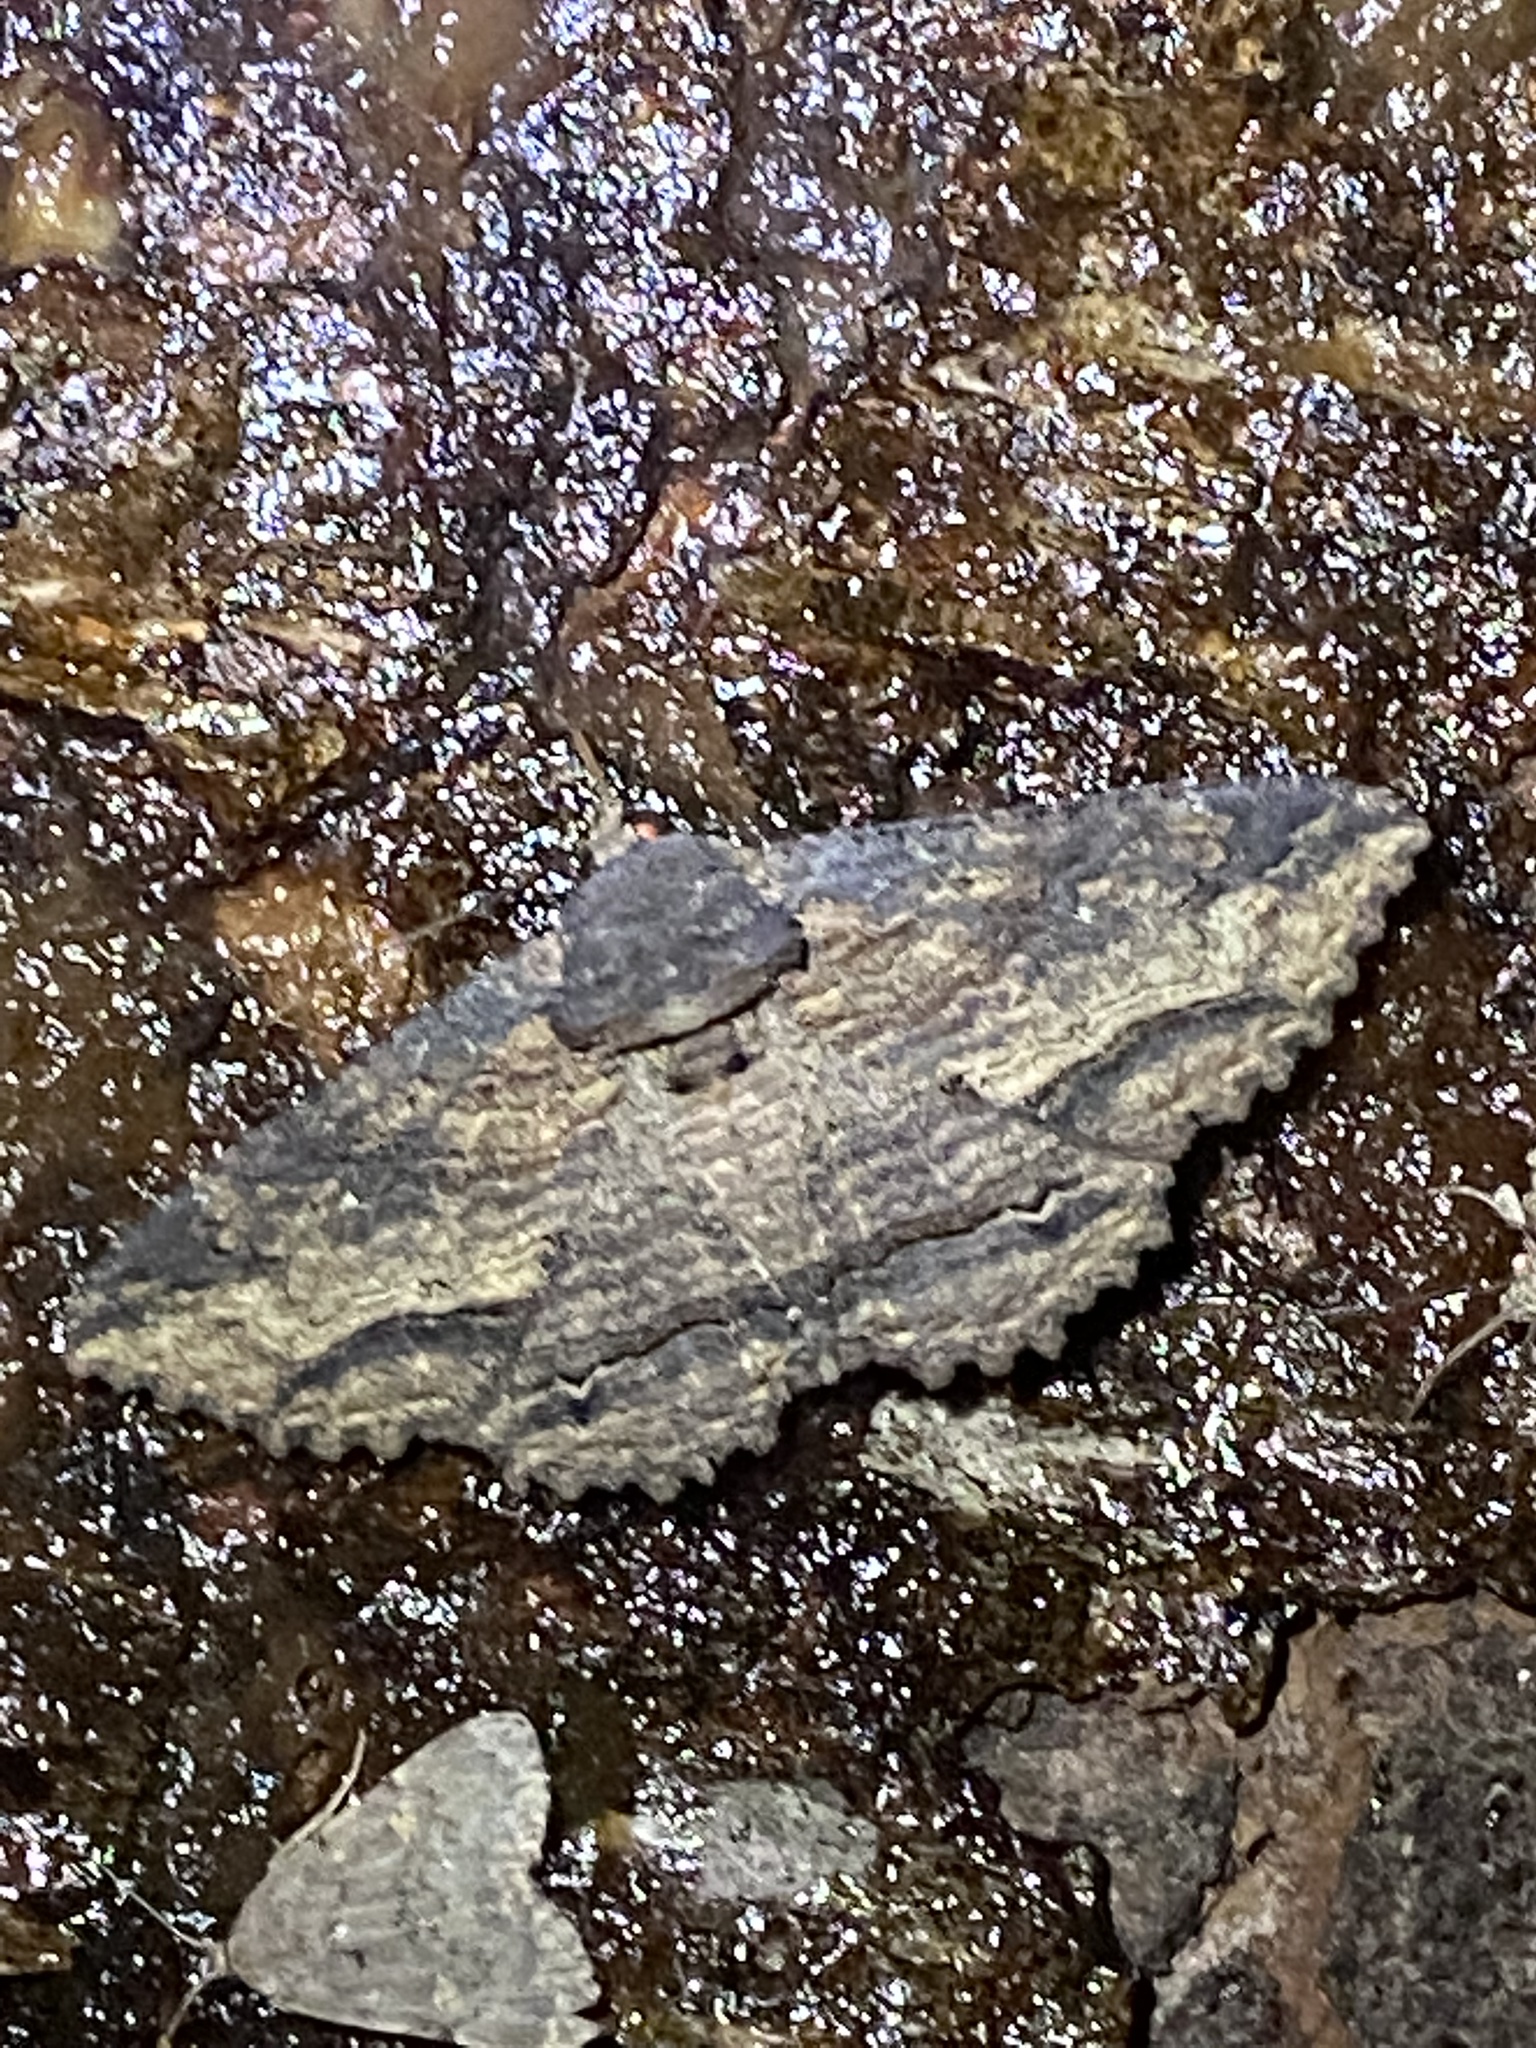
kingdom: Animalia
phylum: Arthropoda
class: Insecta
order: Lepidoptera
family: Erebidae
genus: Zale
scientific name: Zale lunata
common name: Lunate zale moth
